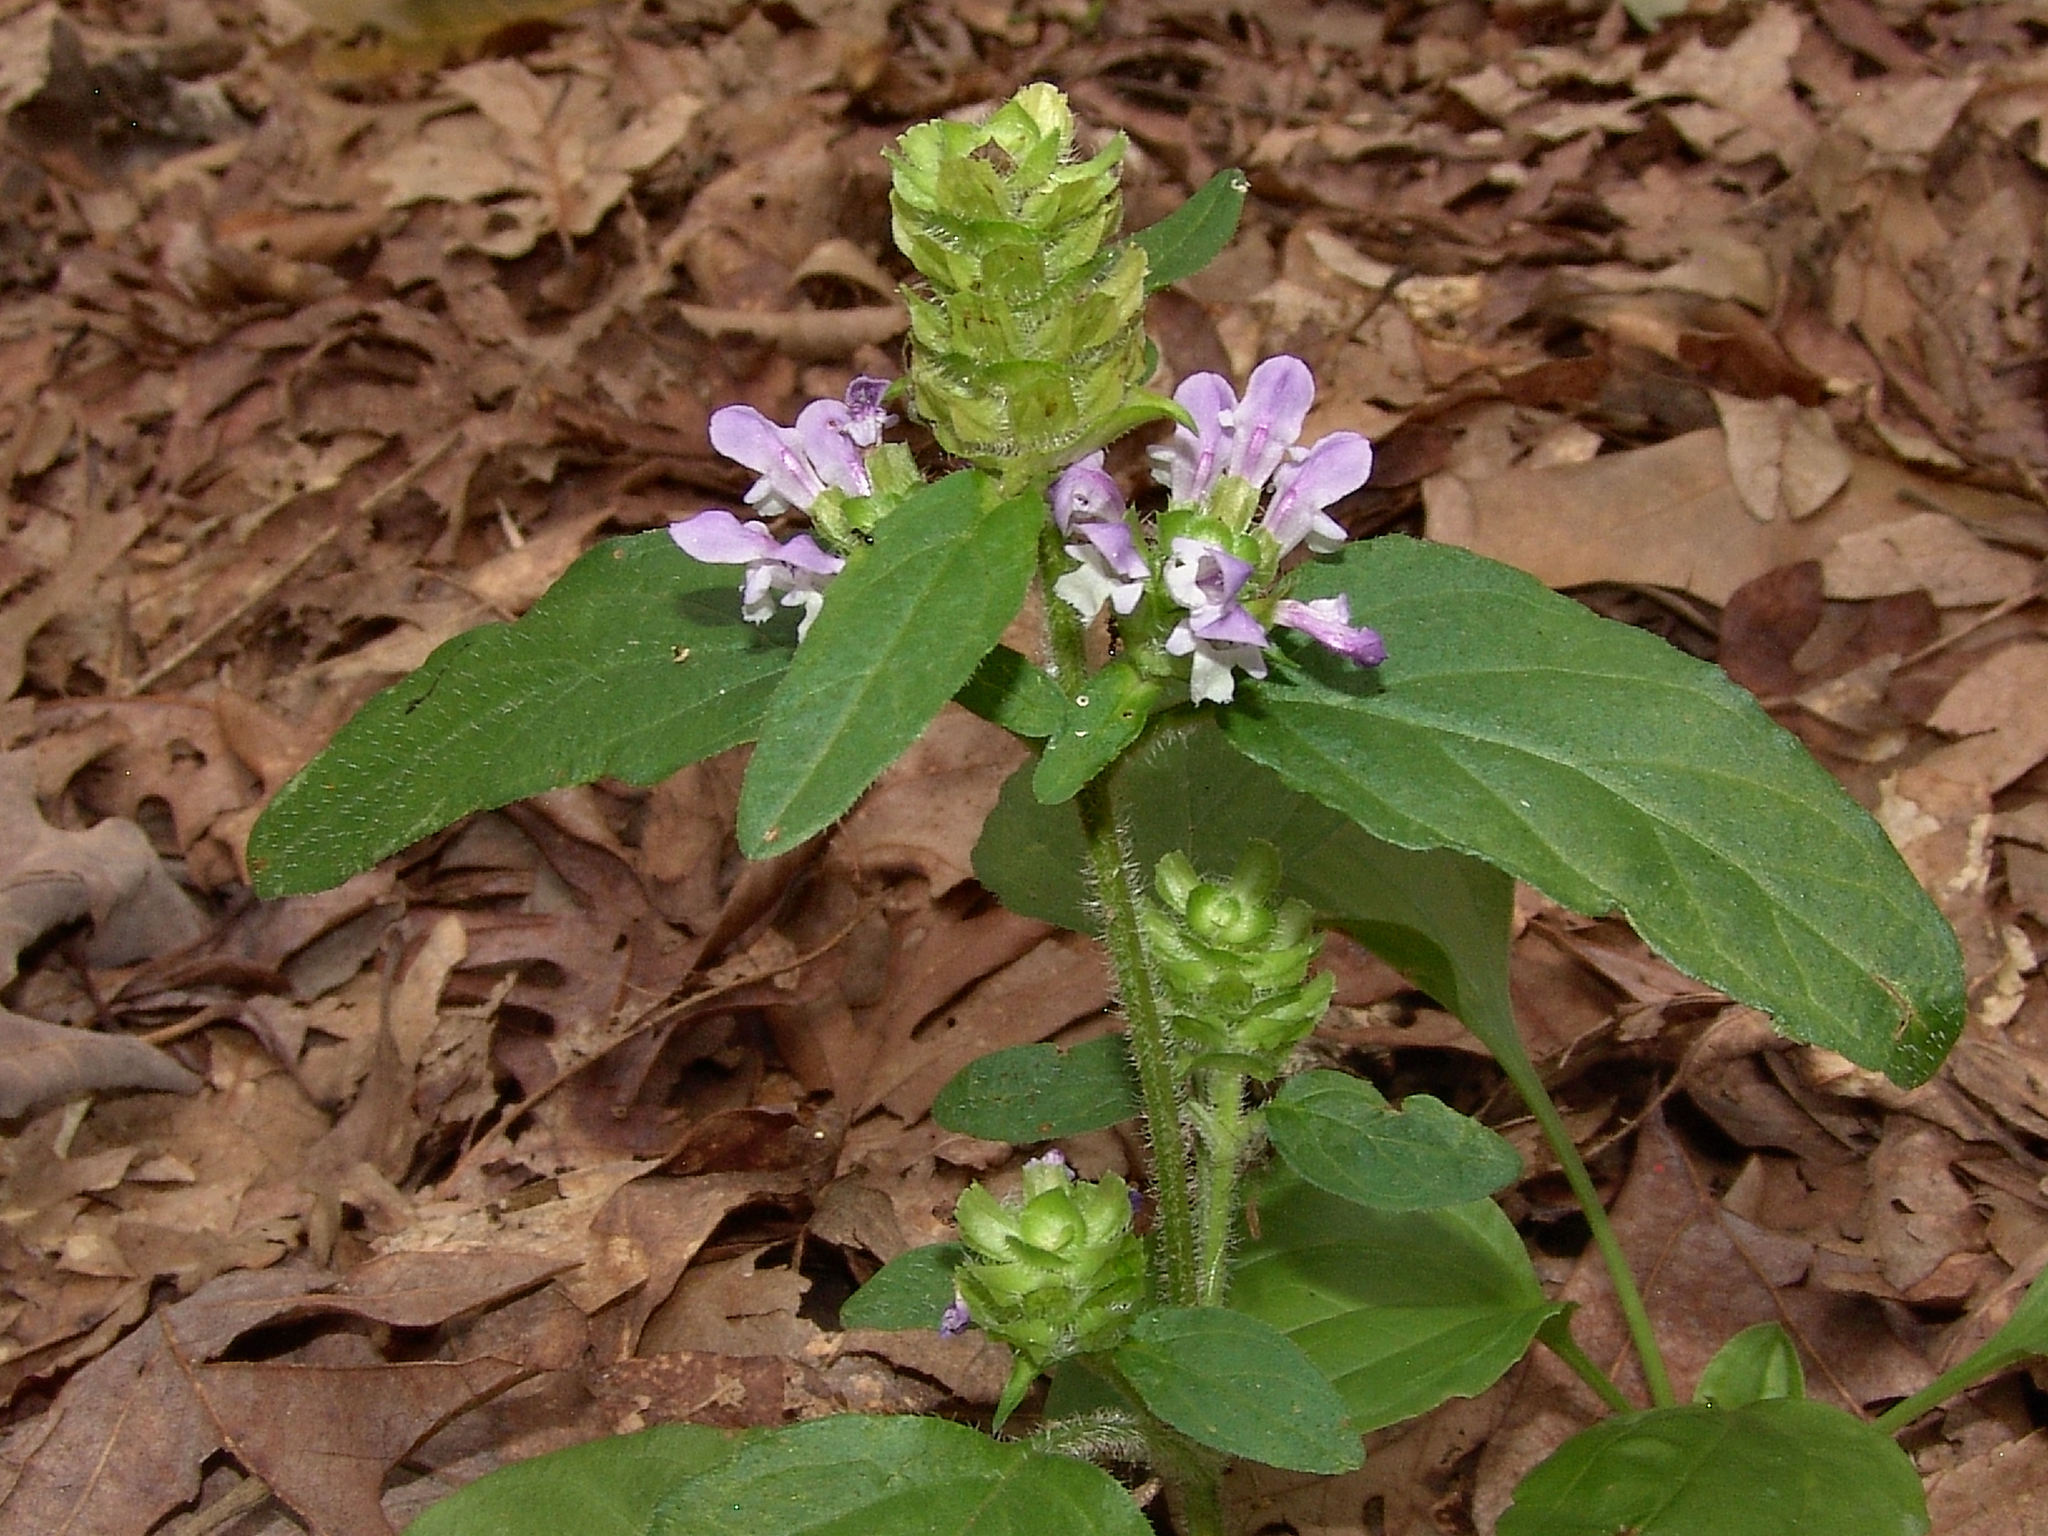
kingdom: Plantae
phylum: Tracheophyta
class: Magnoliopsida
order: Lamiales
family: Lamiaceae
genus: Prunella
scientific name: Prunella vulgaris
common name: Heal-all
